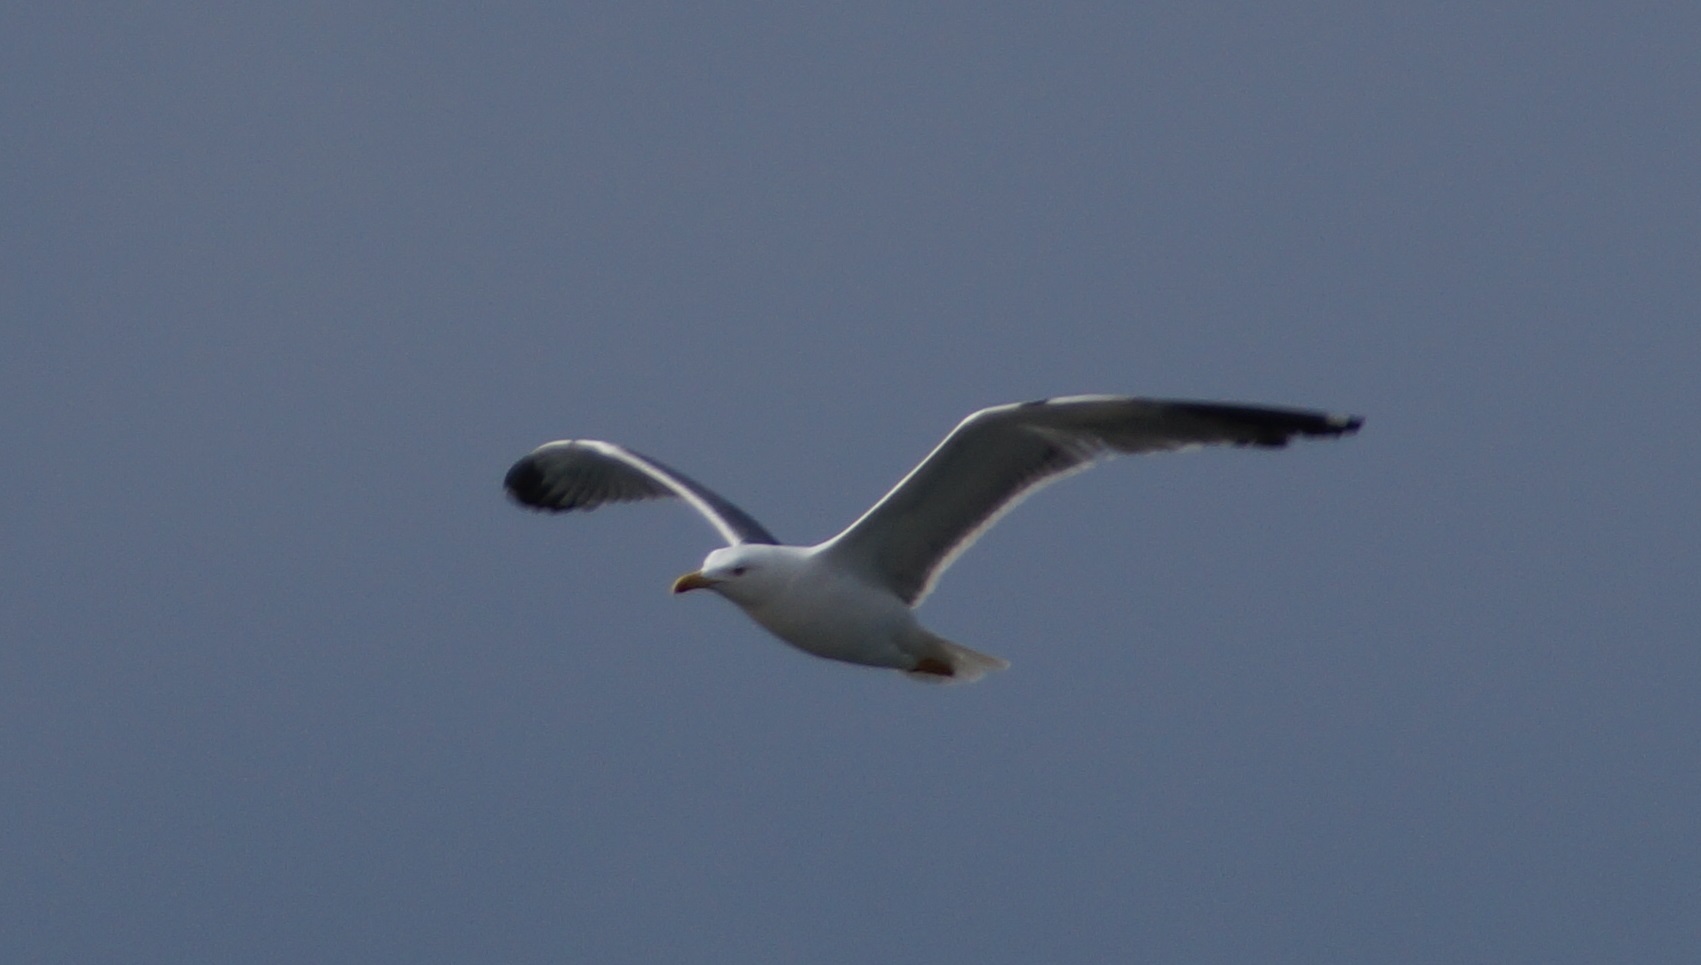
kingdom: Animalia
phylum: Chordata
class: Aves
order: Charadriiformes
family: Laridae
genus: Larus
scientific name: Larus michahellis
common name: Yellow-legged gull
